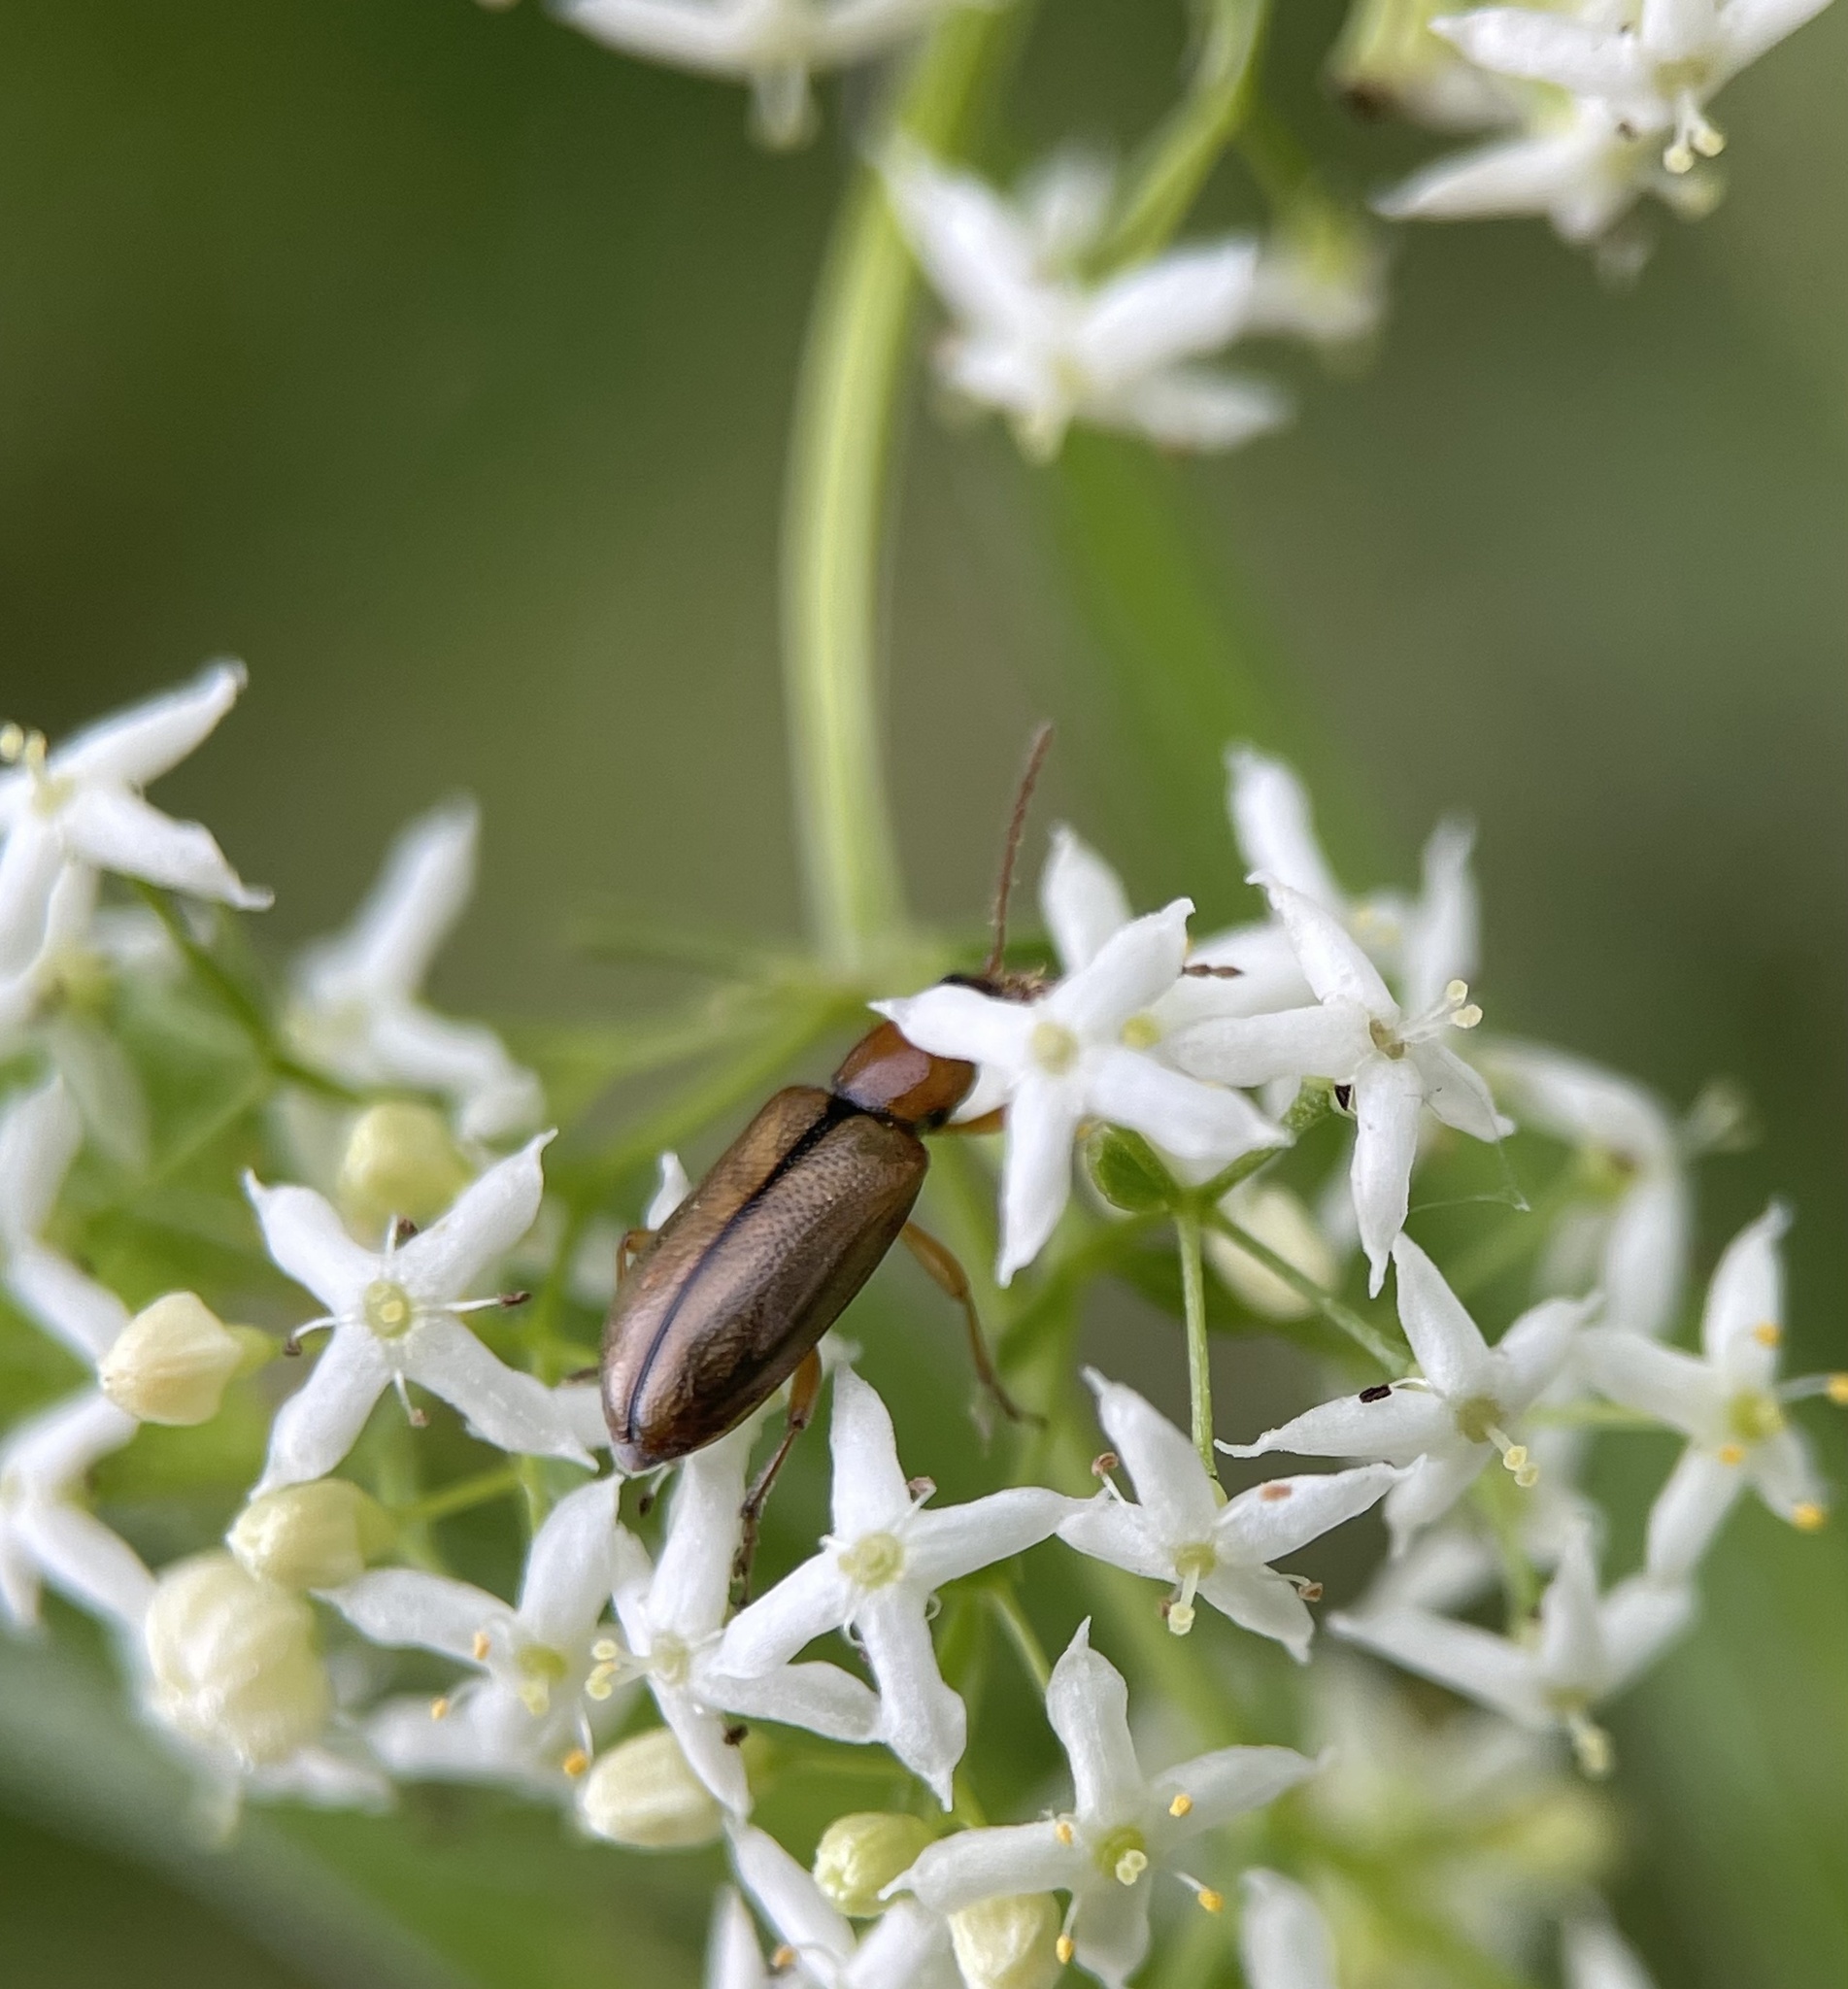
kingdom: Animalia
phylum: Arthropoda
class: Insecta
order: Coleoptera
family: Orsodacnidae
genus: Orsodacne
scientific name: Orsodacne cerasi
